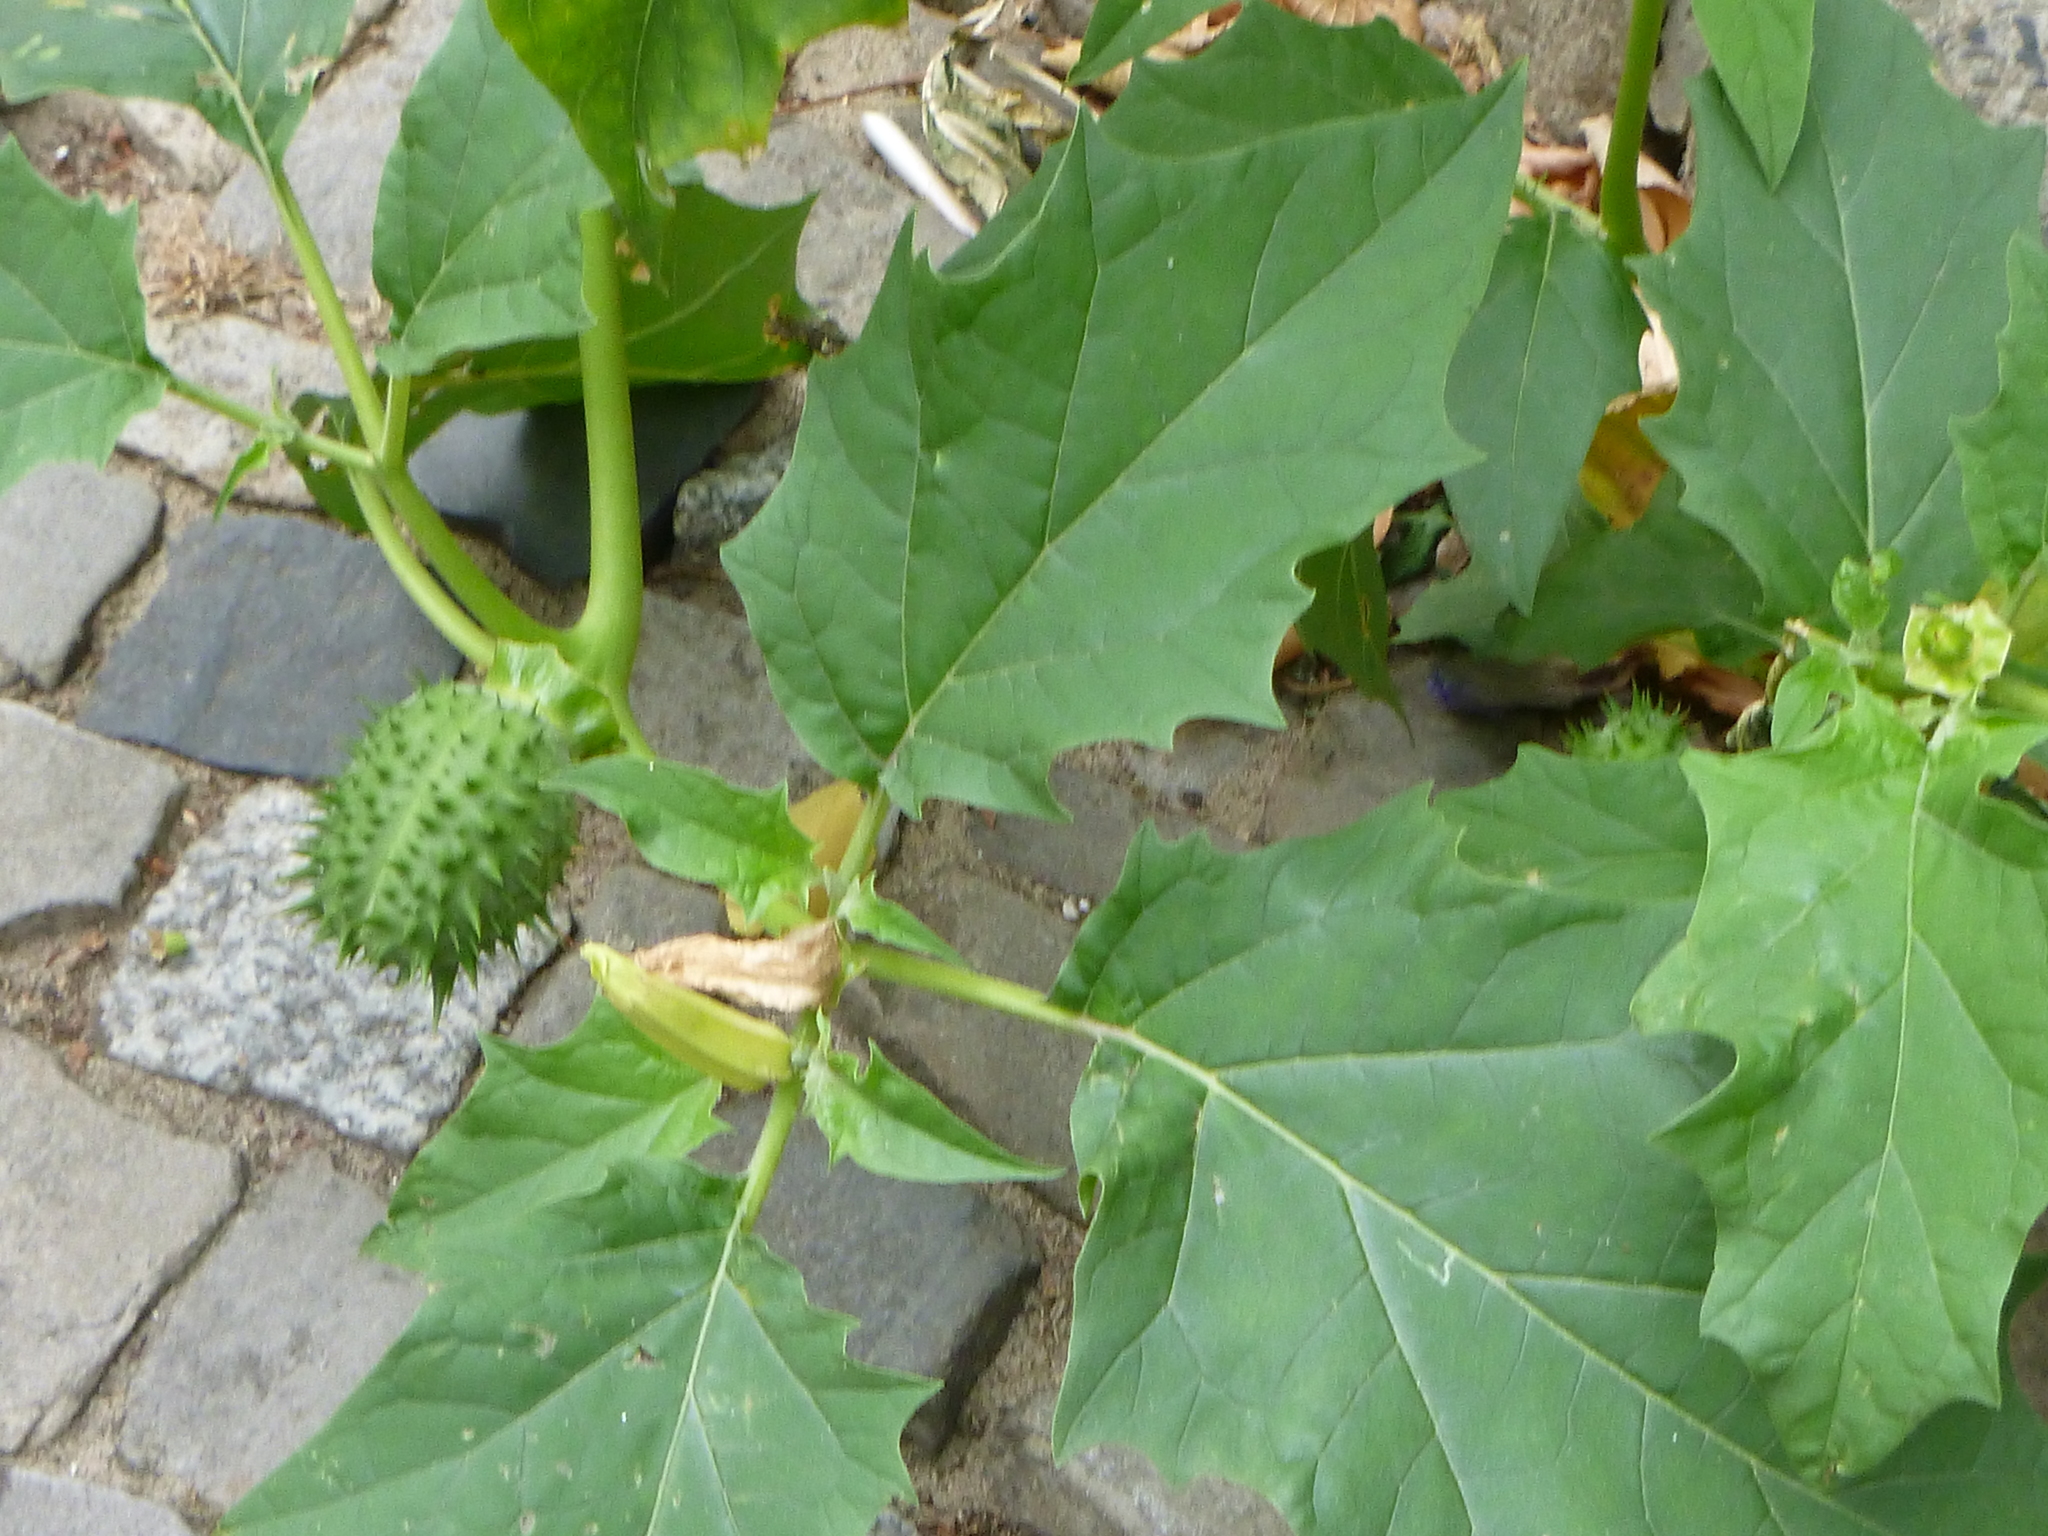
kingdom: Plantae
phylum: Tracheophyta
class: Magnoliopsida
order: Solanales
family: Solanaceae
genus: Datura
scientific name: Datura stramonium
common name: Thorn-apple
